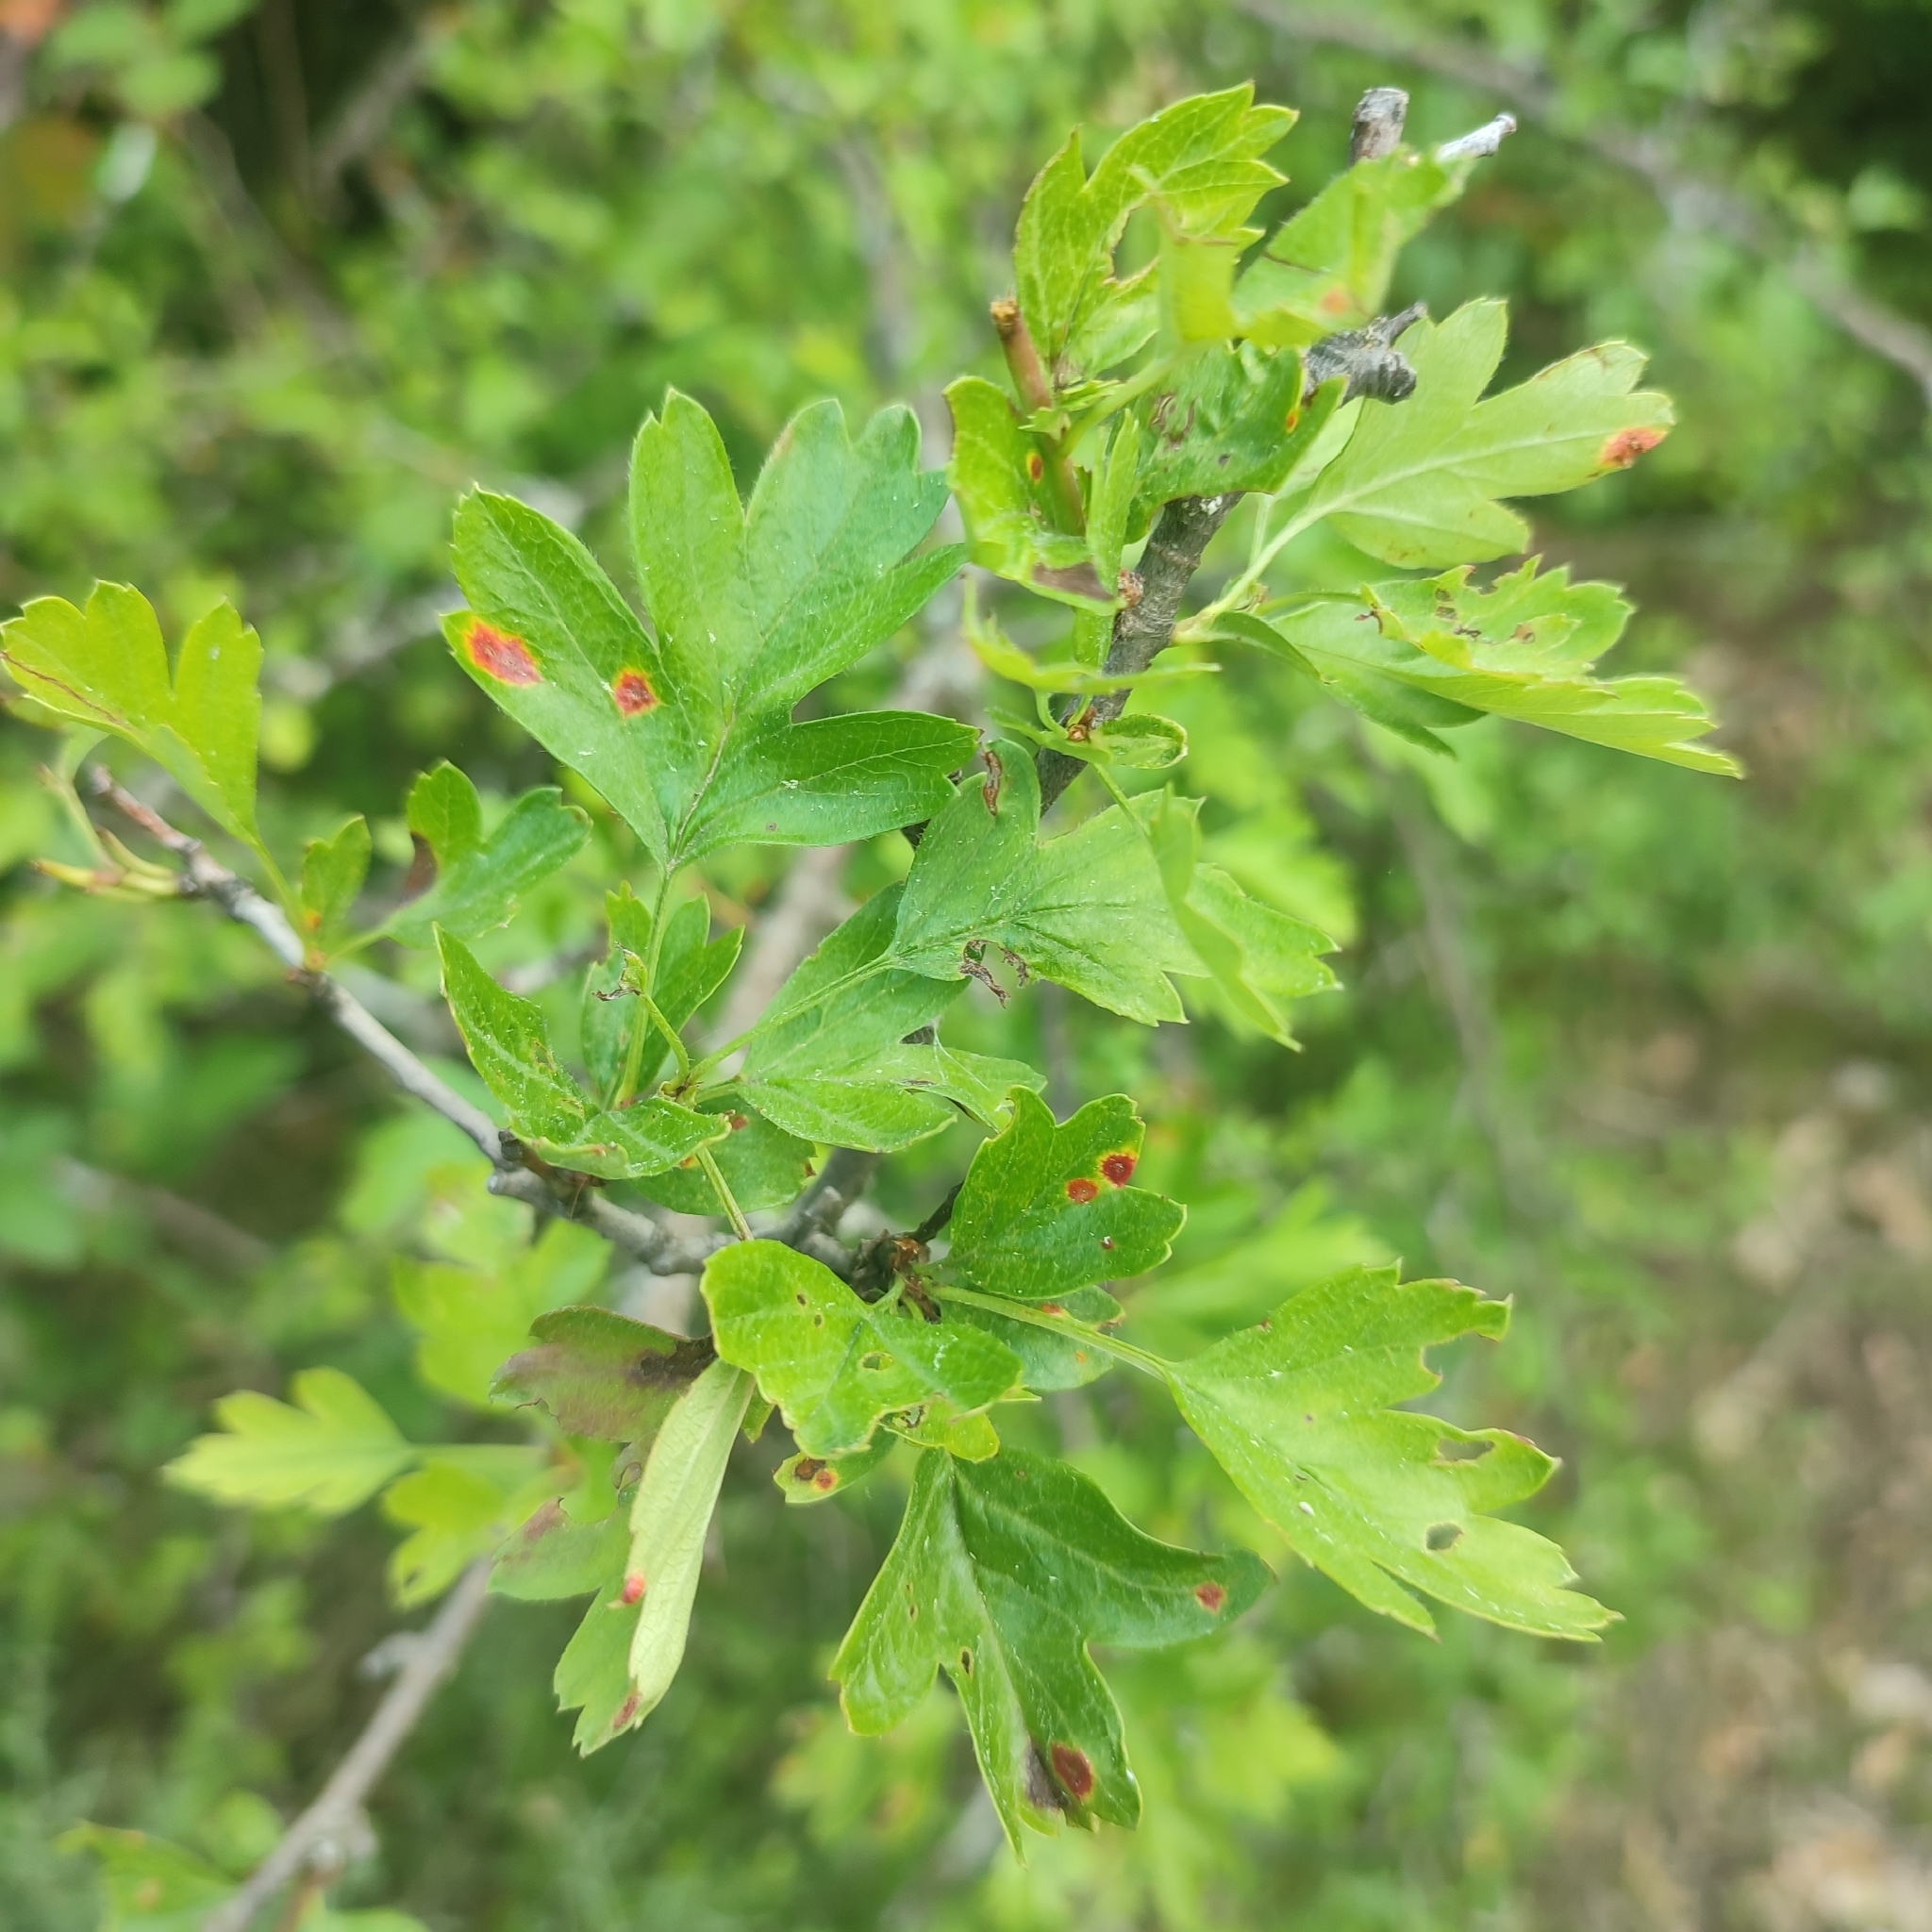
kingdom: Plantae
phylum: Tracheophyta
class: Magnoliopsida
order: Rosales
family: Rosaceae
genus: Crataegus
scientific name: Crataegus monogyna
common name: Hawthorn
